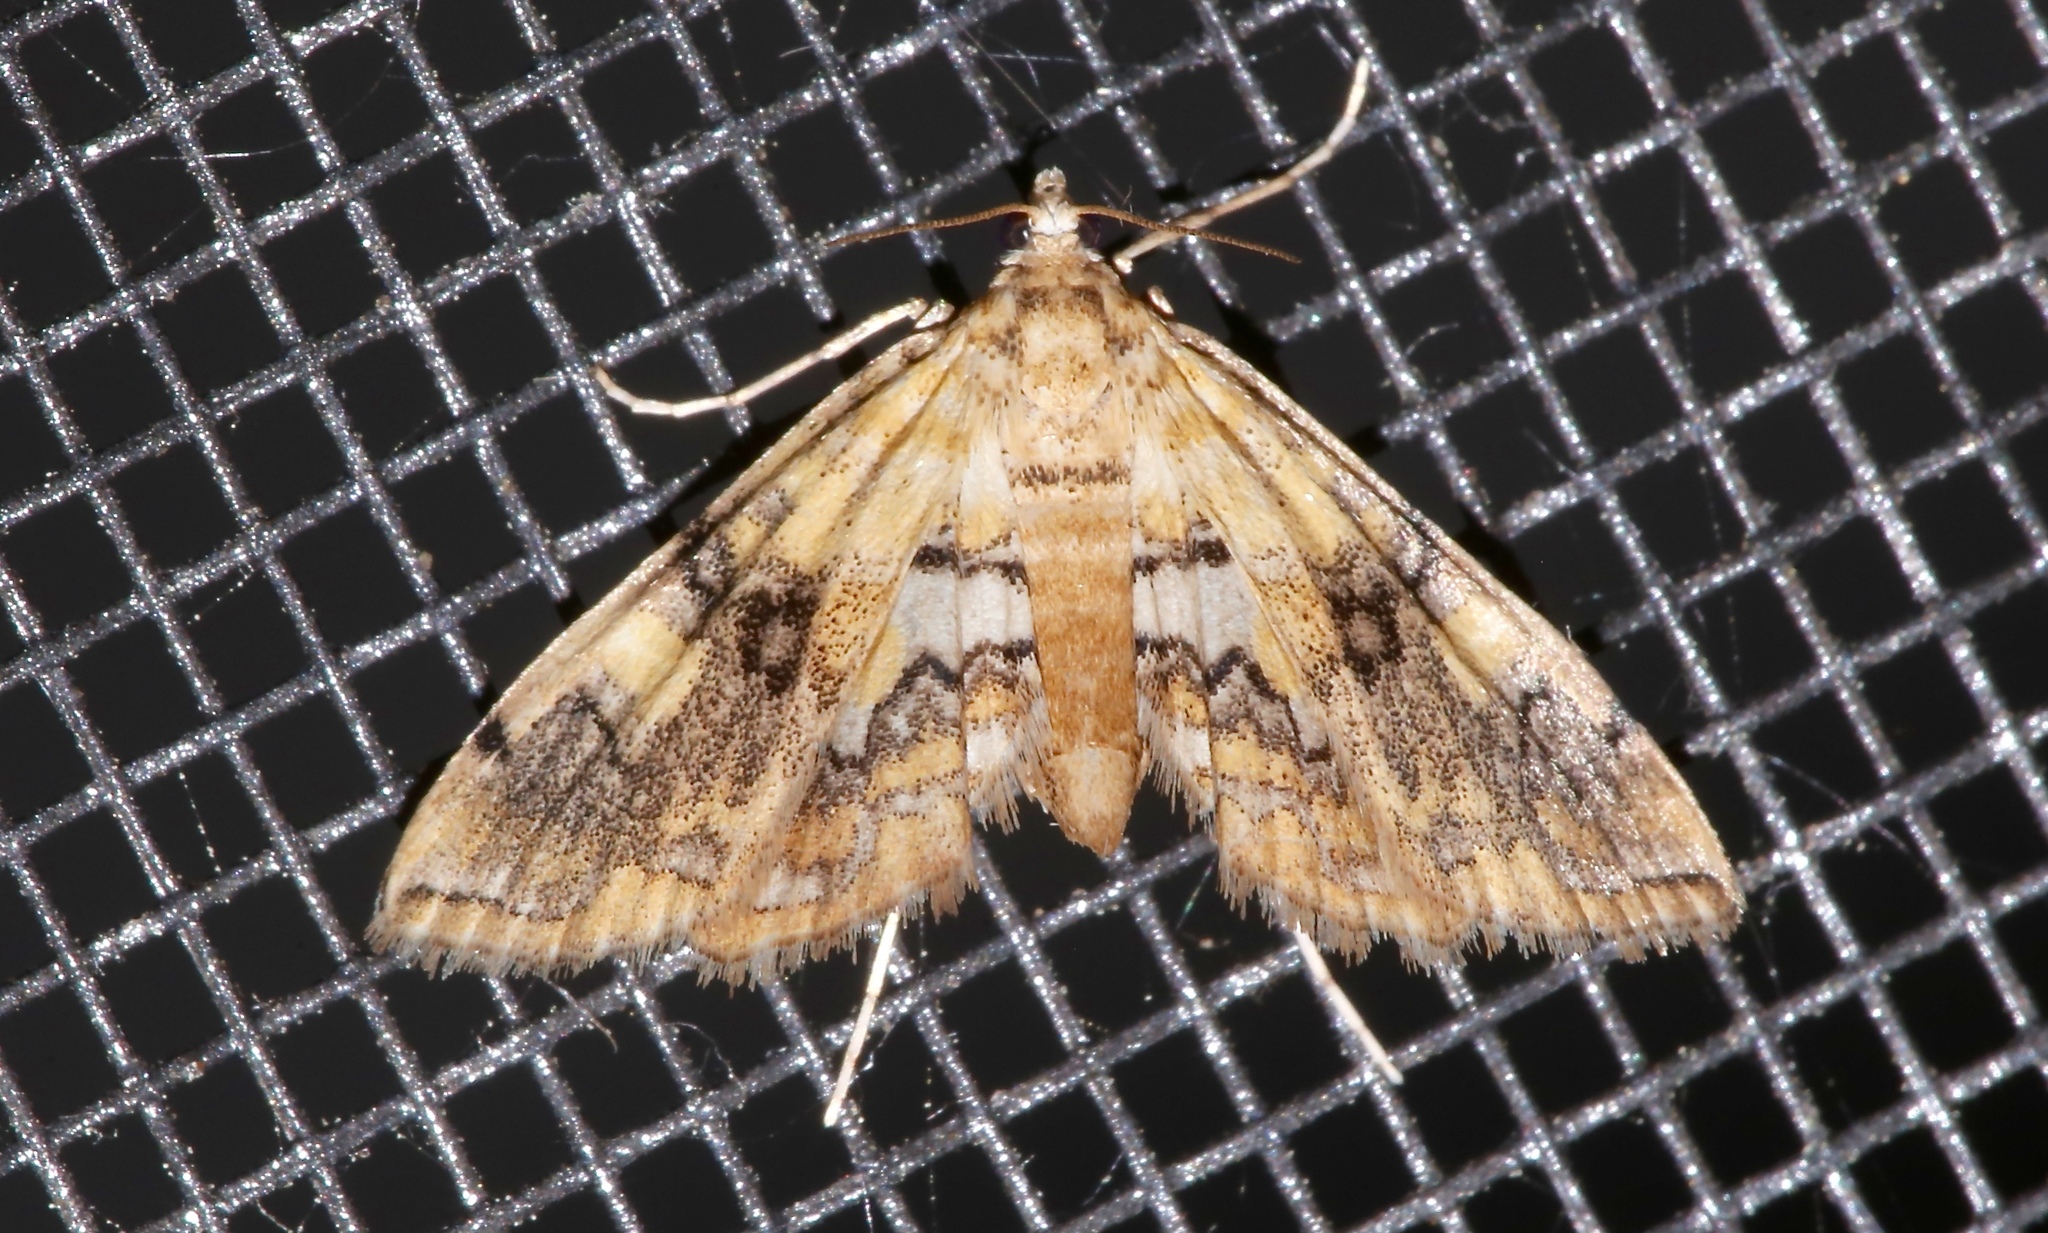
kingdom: Animalia
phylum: Arthropoda
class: Insecta
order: Lepidoptera
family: Crambidae
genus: Elophila
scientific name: Elophila faulalis
